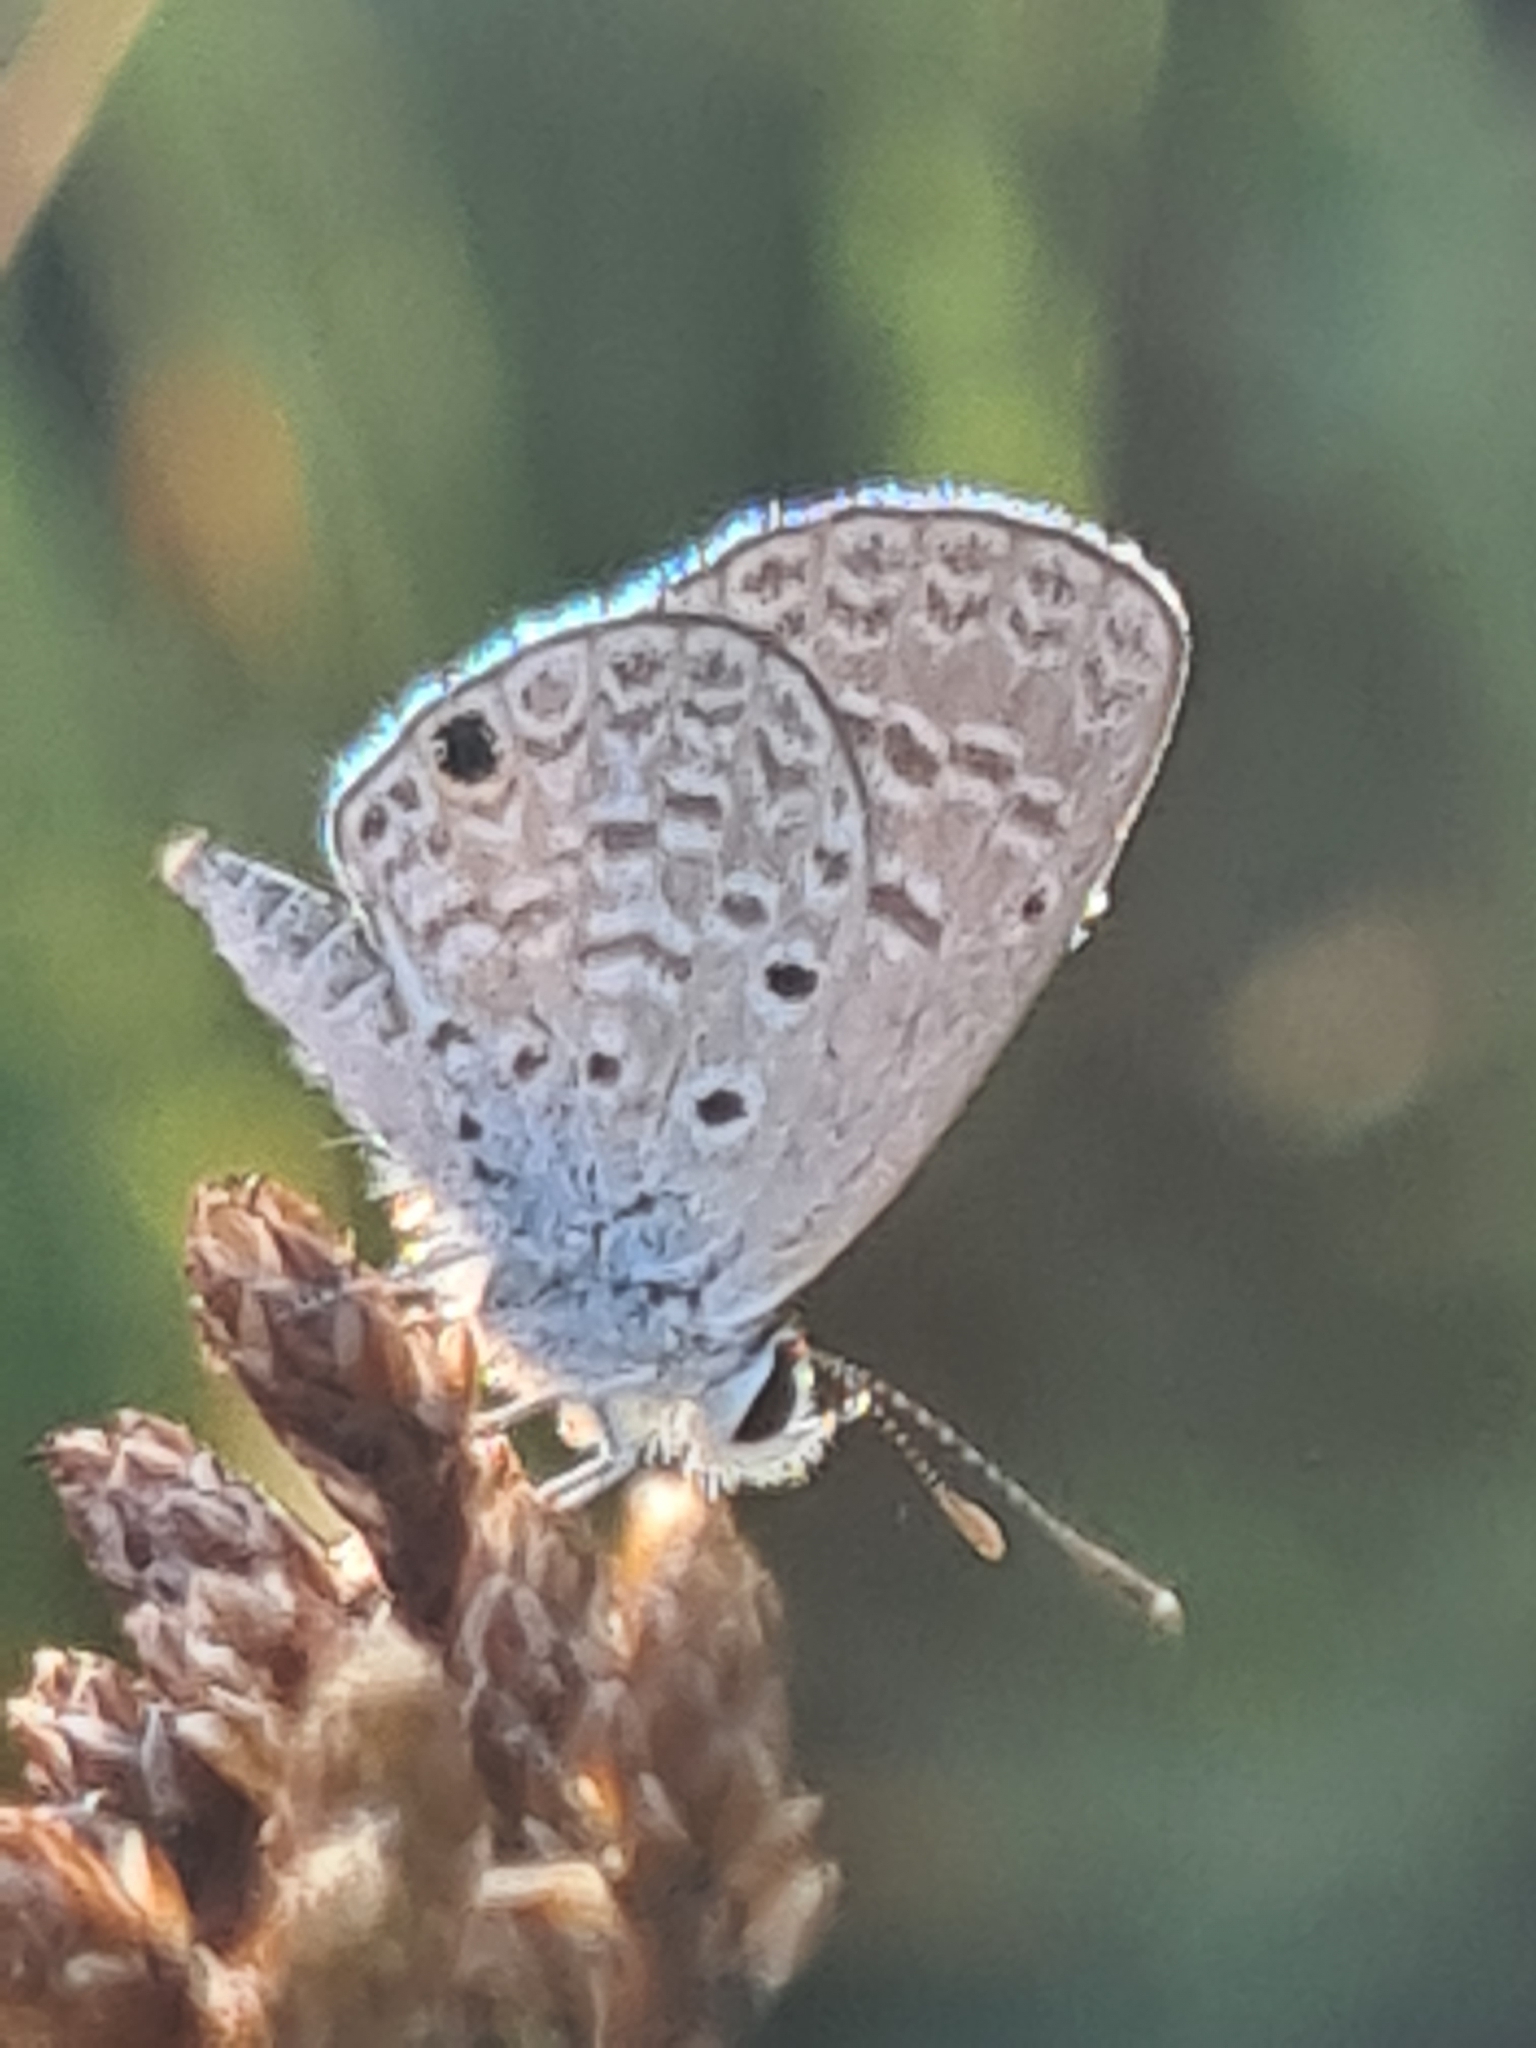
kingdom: Animalia
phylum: Arthropoda
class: Insecta
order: Lepidoptera
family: Lycaenidae
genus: Hemiargus
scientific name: Hemiargus hanno
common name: Common blue
